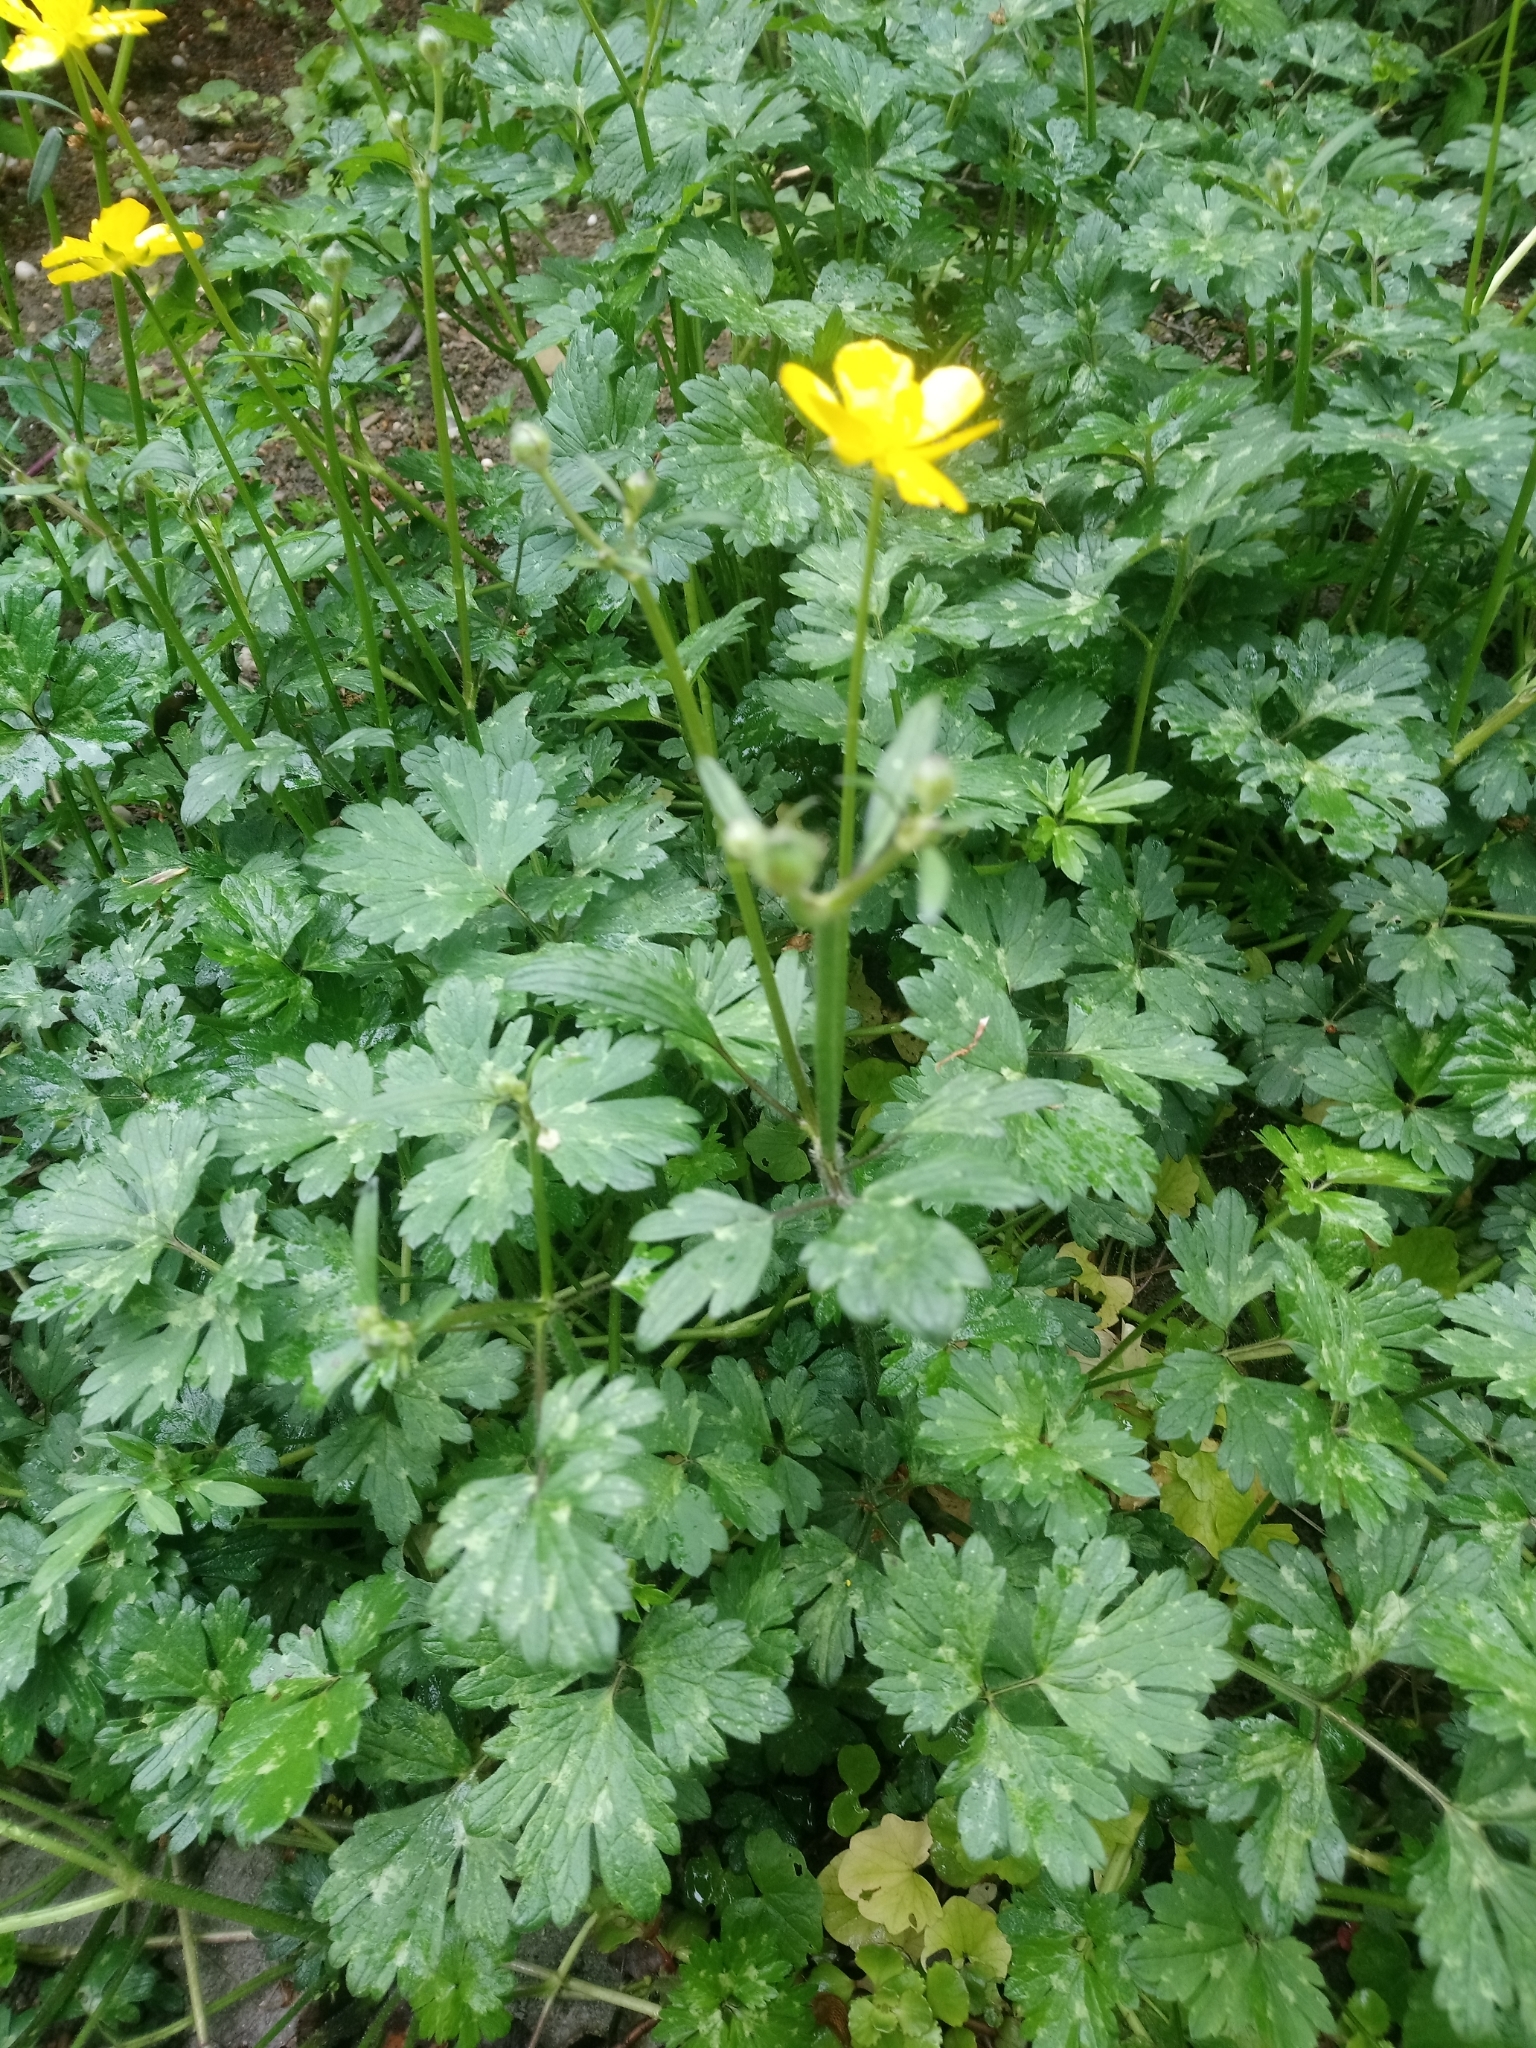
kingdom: Plantae
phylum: Tracheophyta
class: Magnoliopsida
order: Ranunculales
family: Ranunculaceae
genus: Ranunculus
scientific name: Ranunculus repens
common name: Creeping buttercup
